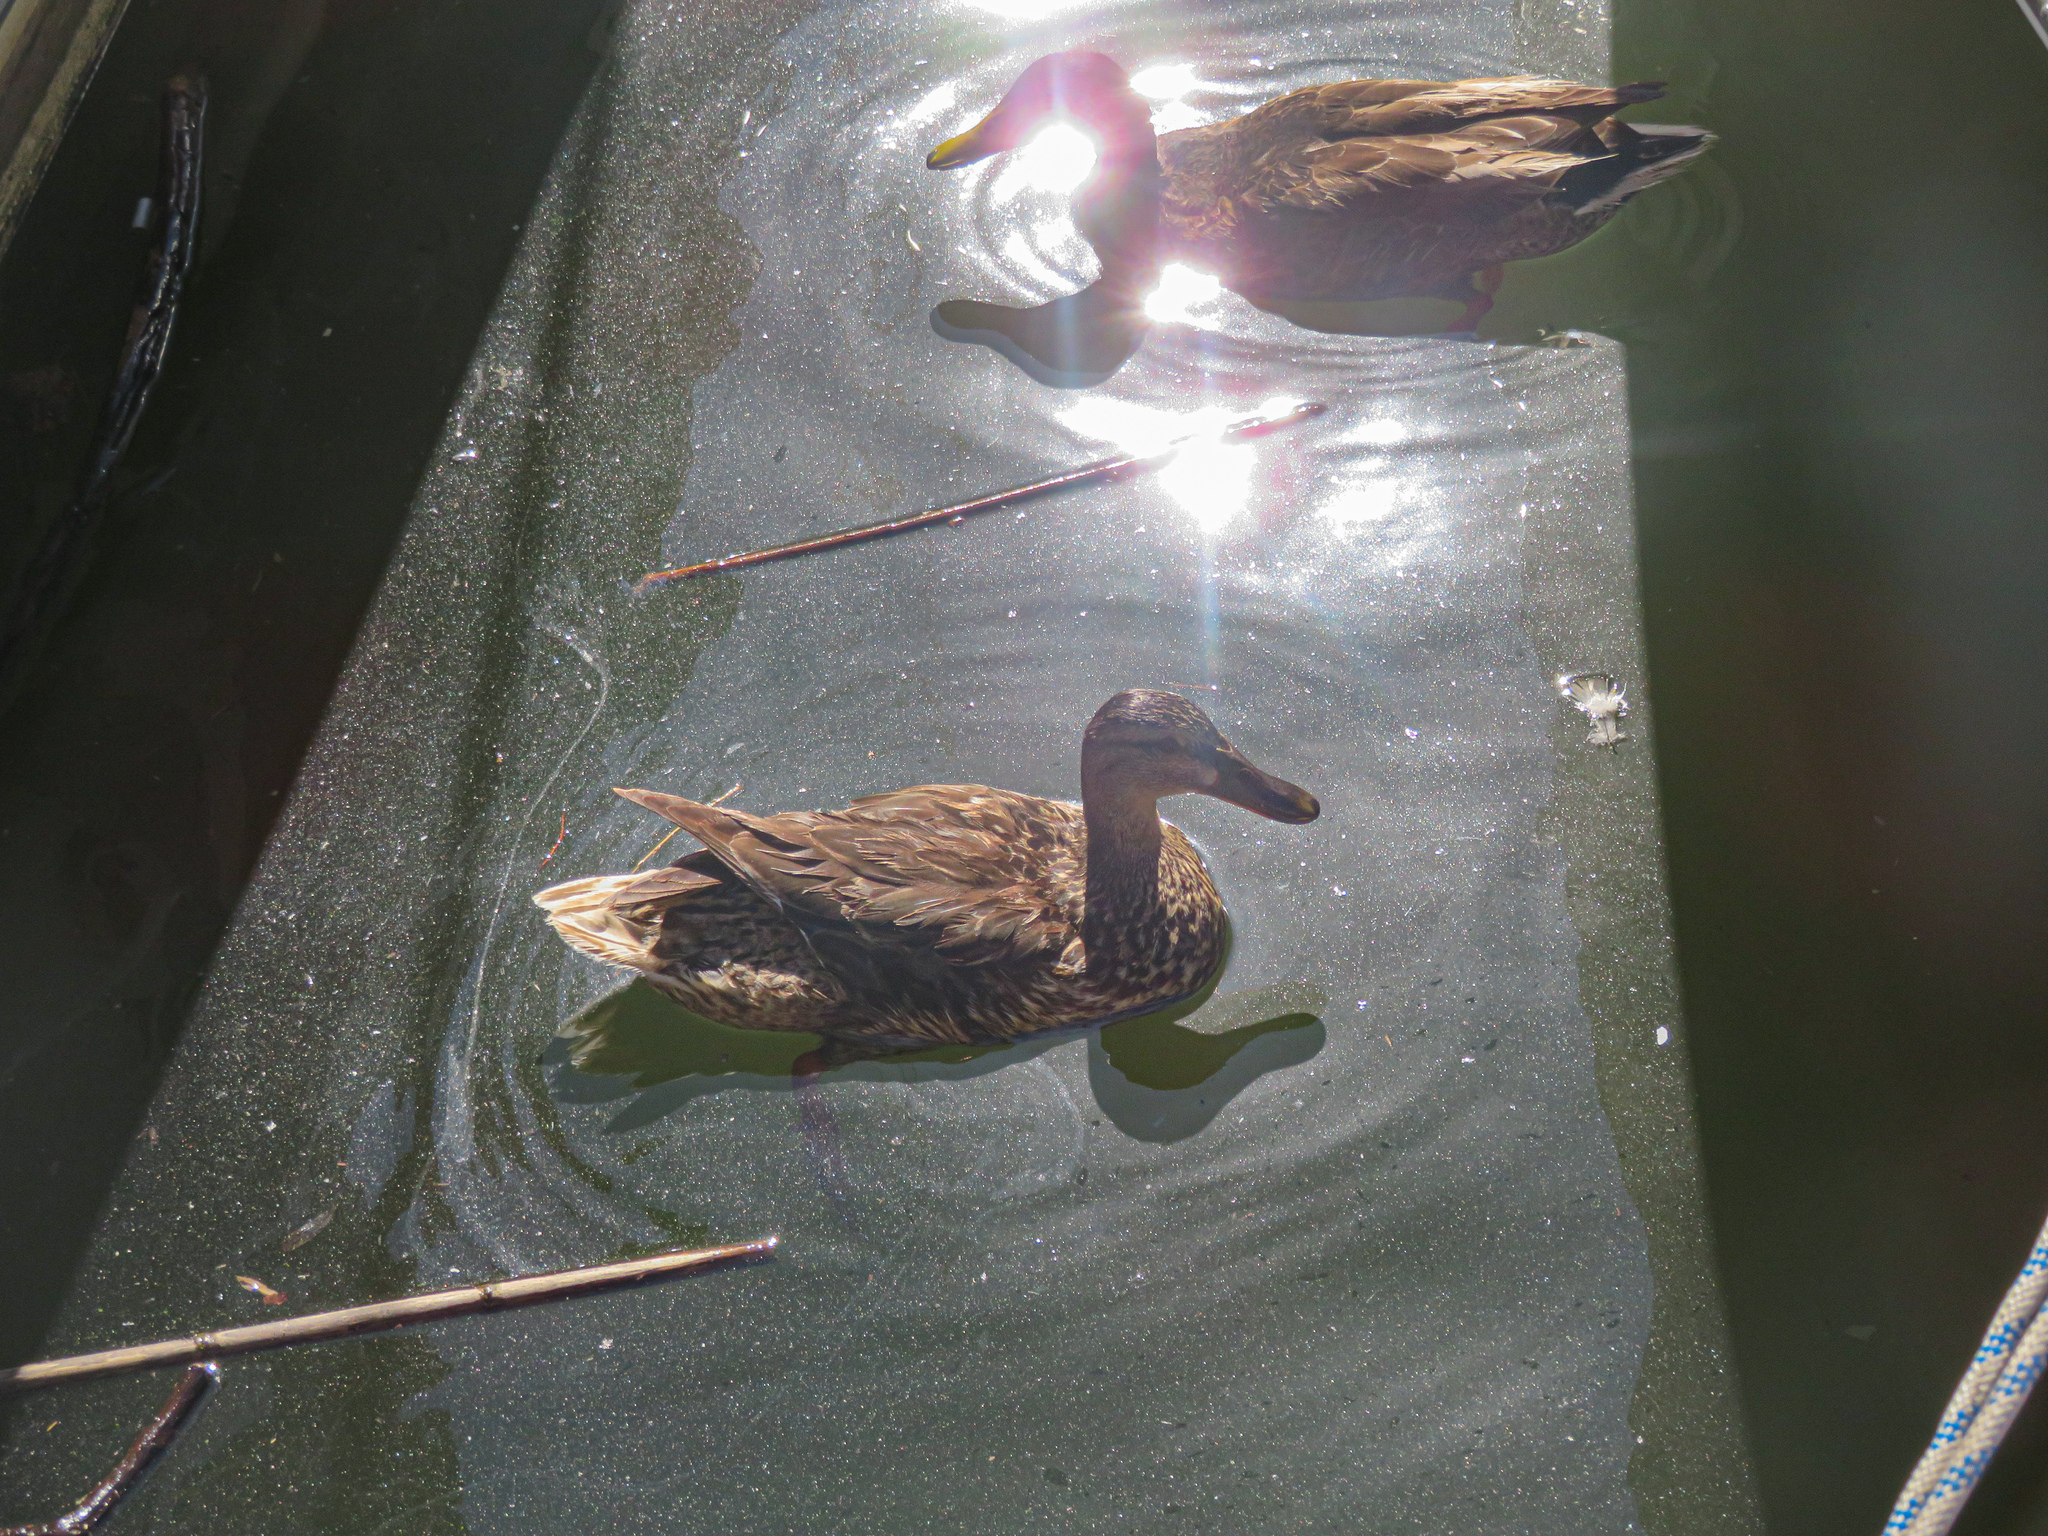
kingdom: Animalia
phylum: Chordata
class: Aves
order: Anseriformes
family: Anatidae
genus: Anas
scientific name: Anas platyrhynchos
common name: Mallard
